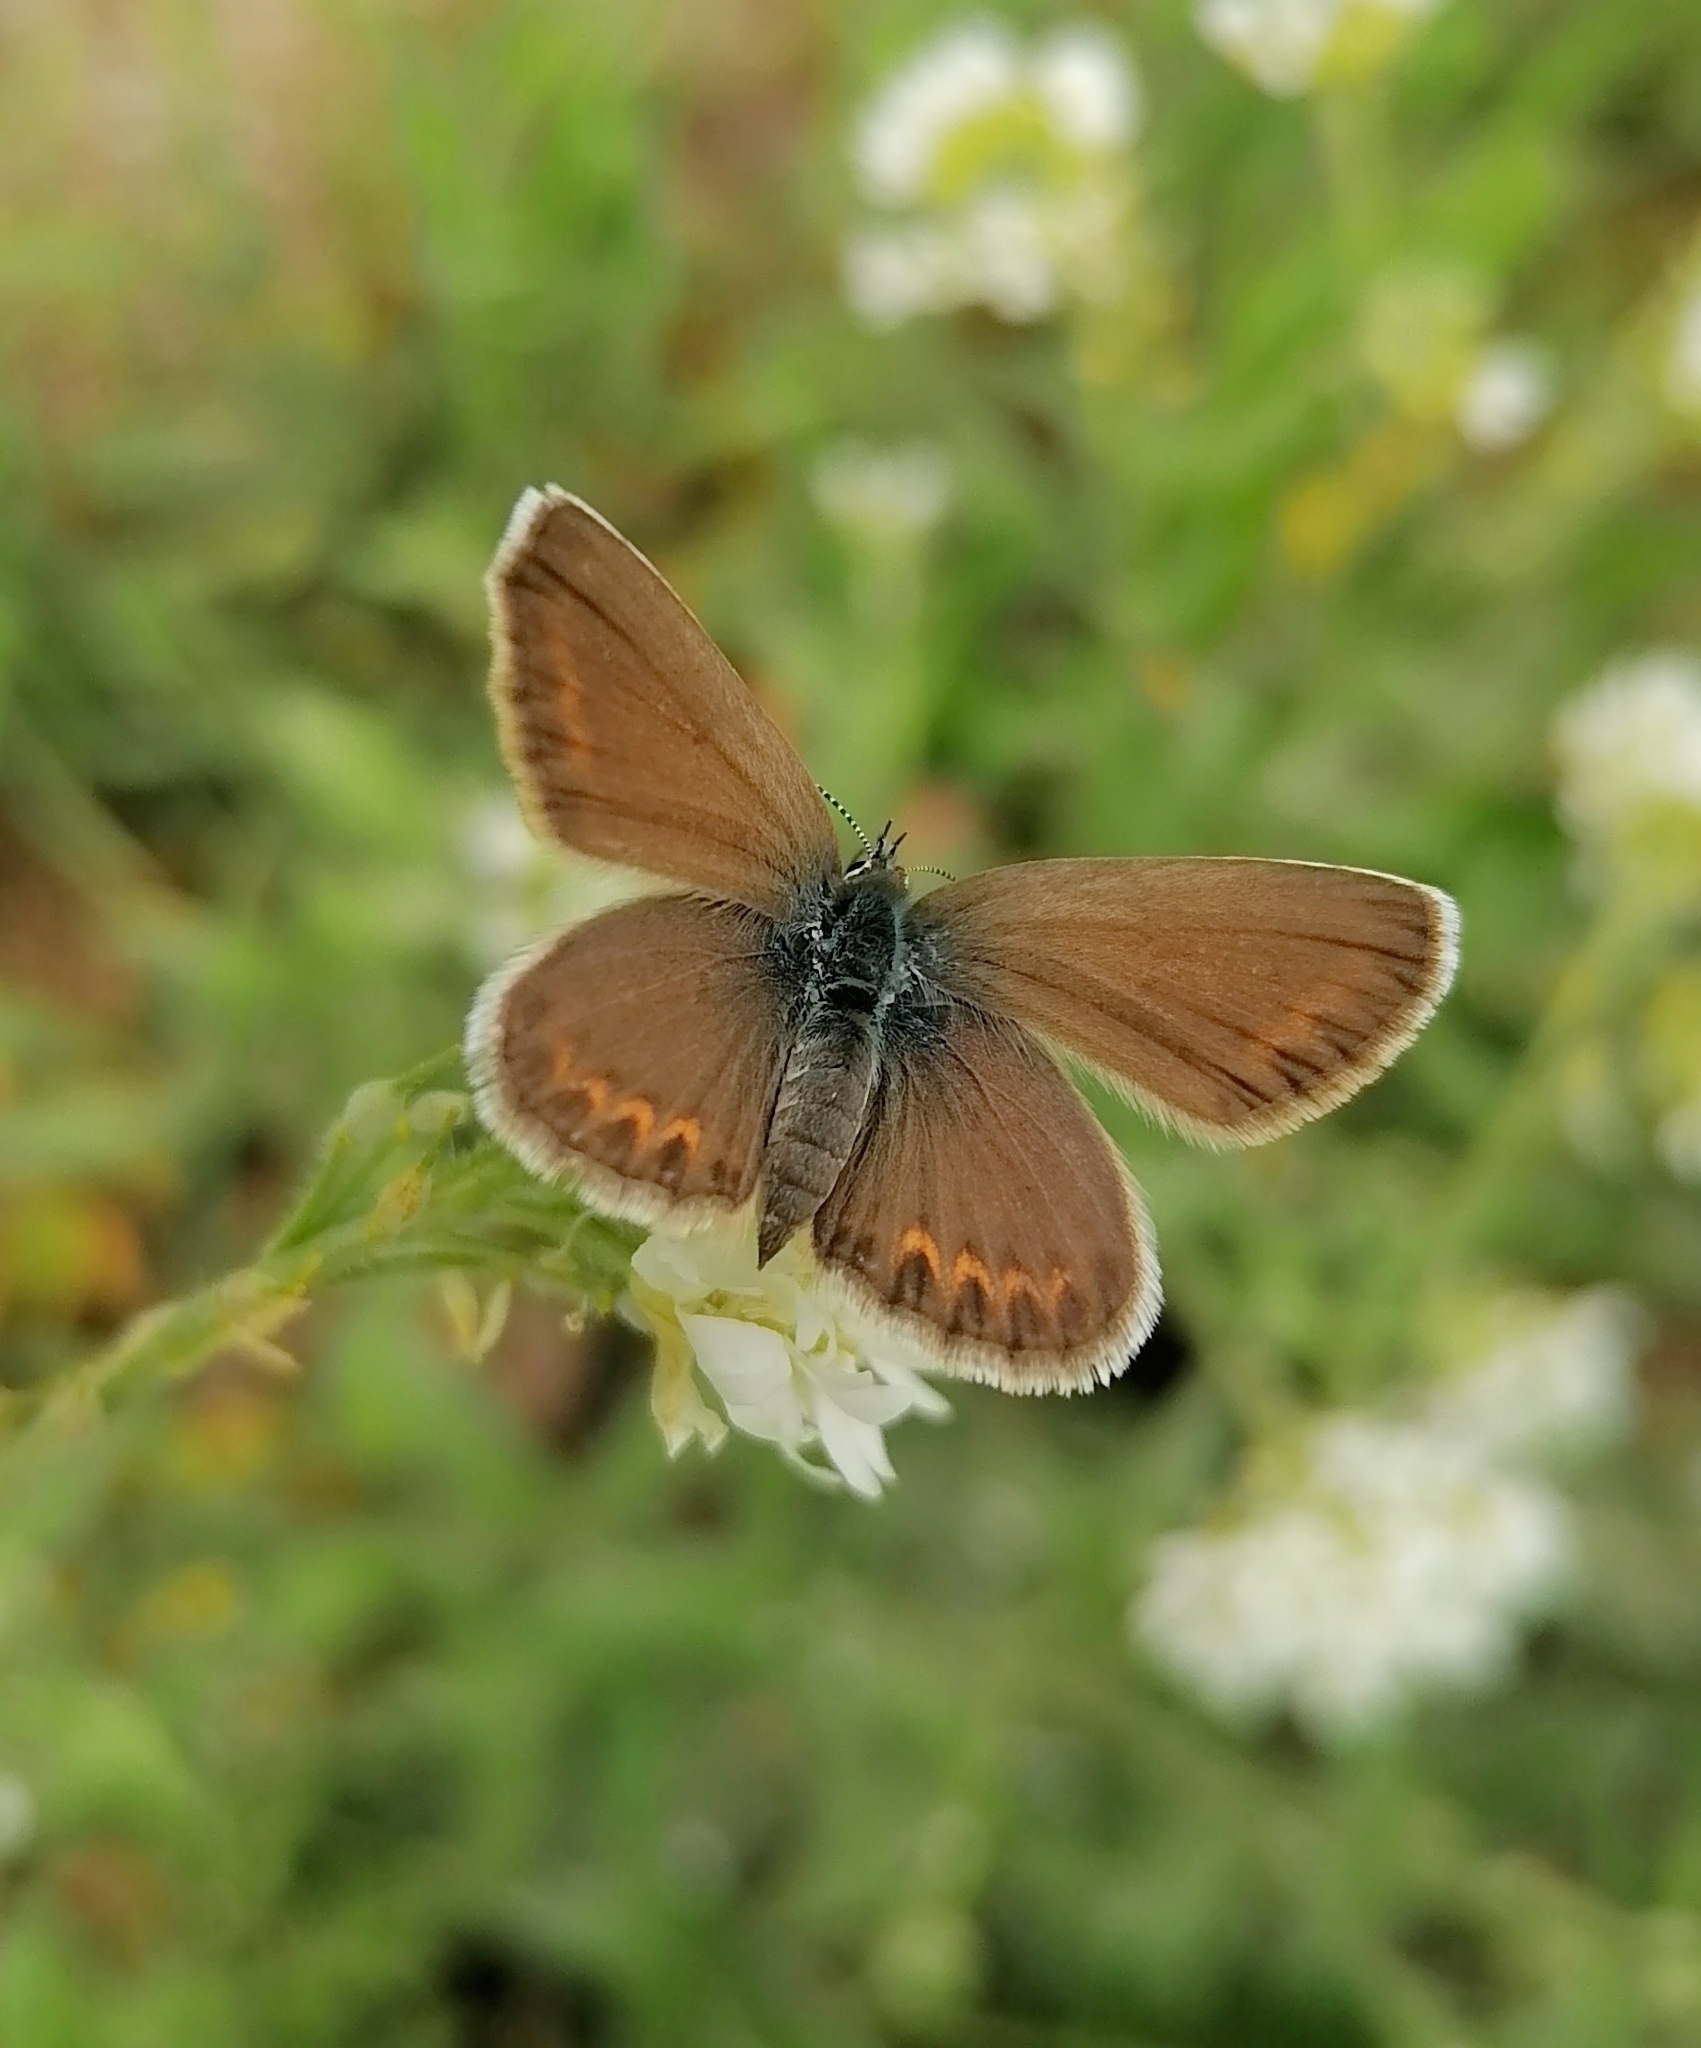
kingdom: Animalia
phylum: Arthropoda
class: Insecta
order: Lepidoptera
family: Lycaenidae
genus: Plebejus
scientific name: Plebejus argus
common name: Silver-studded blue
